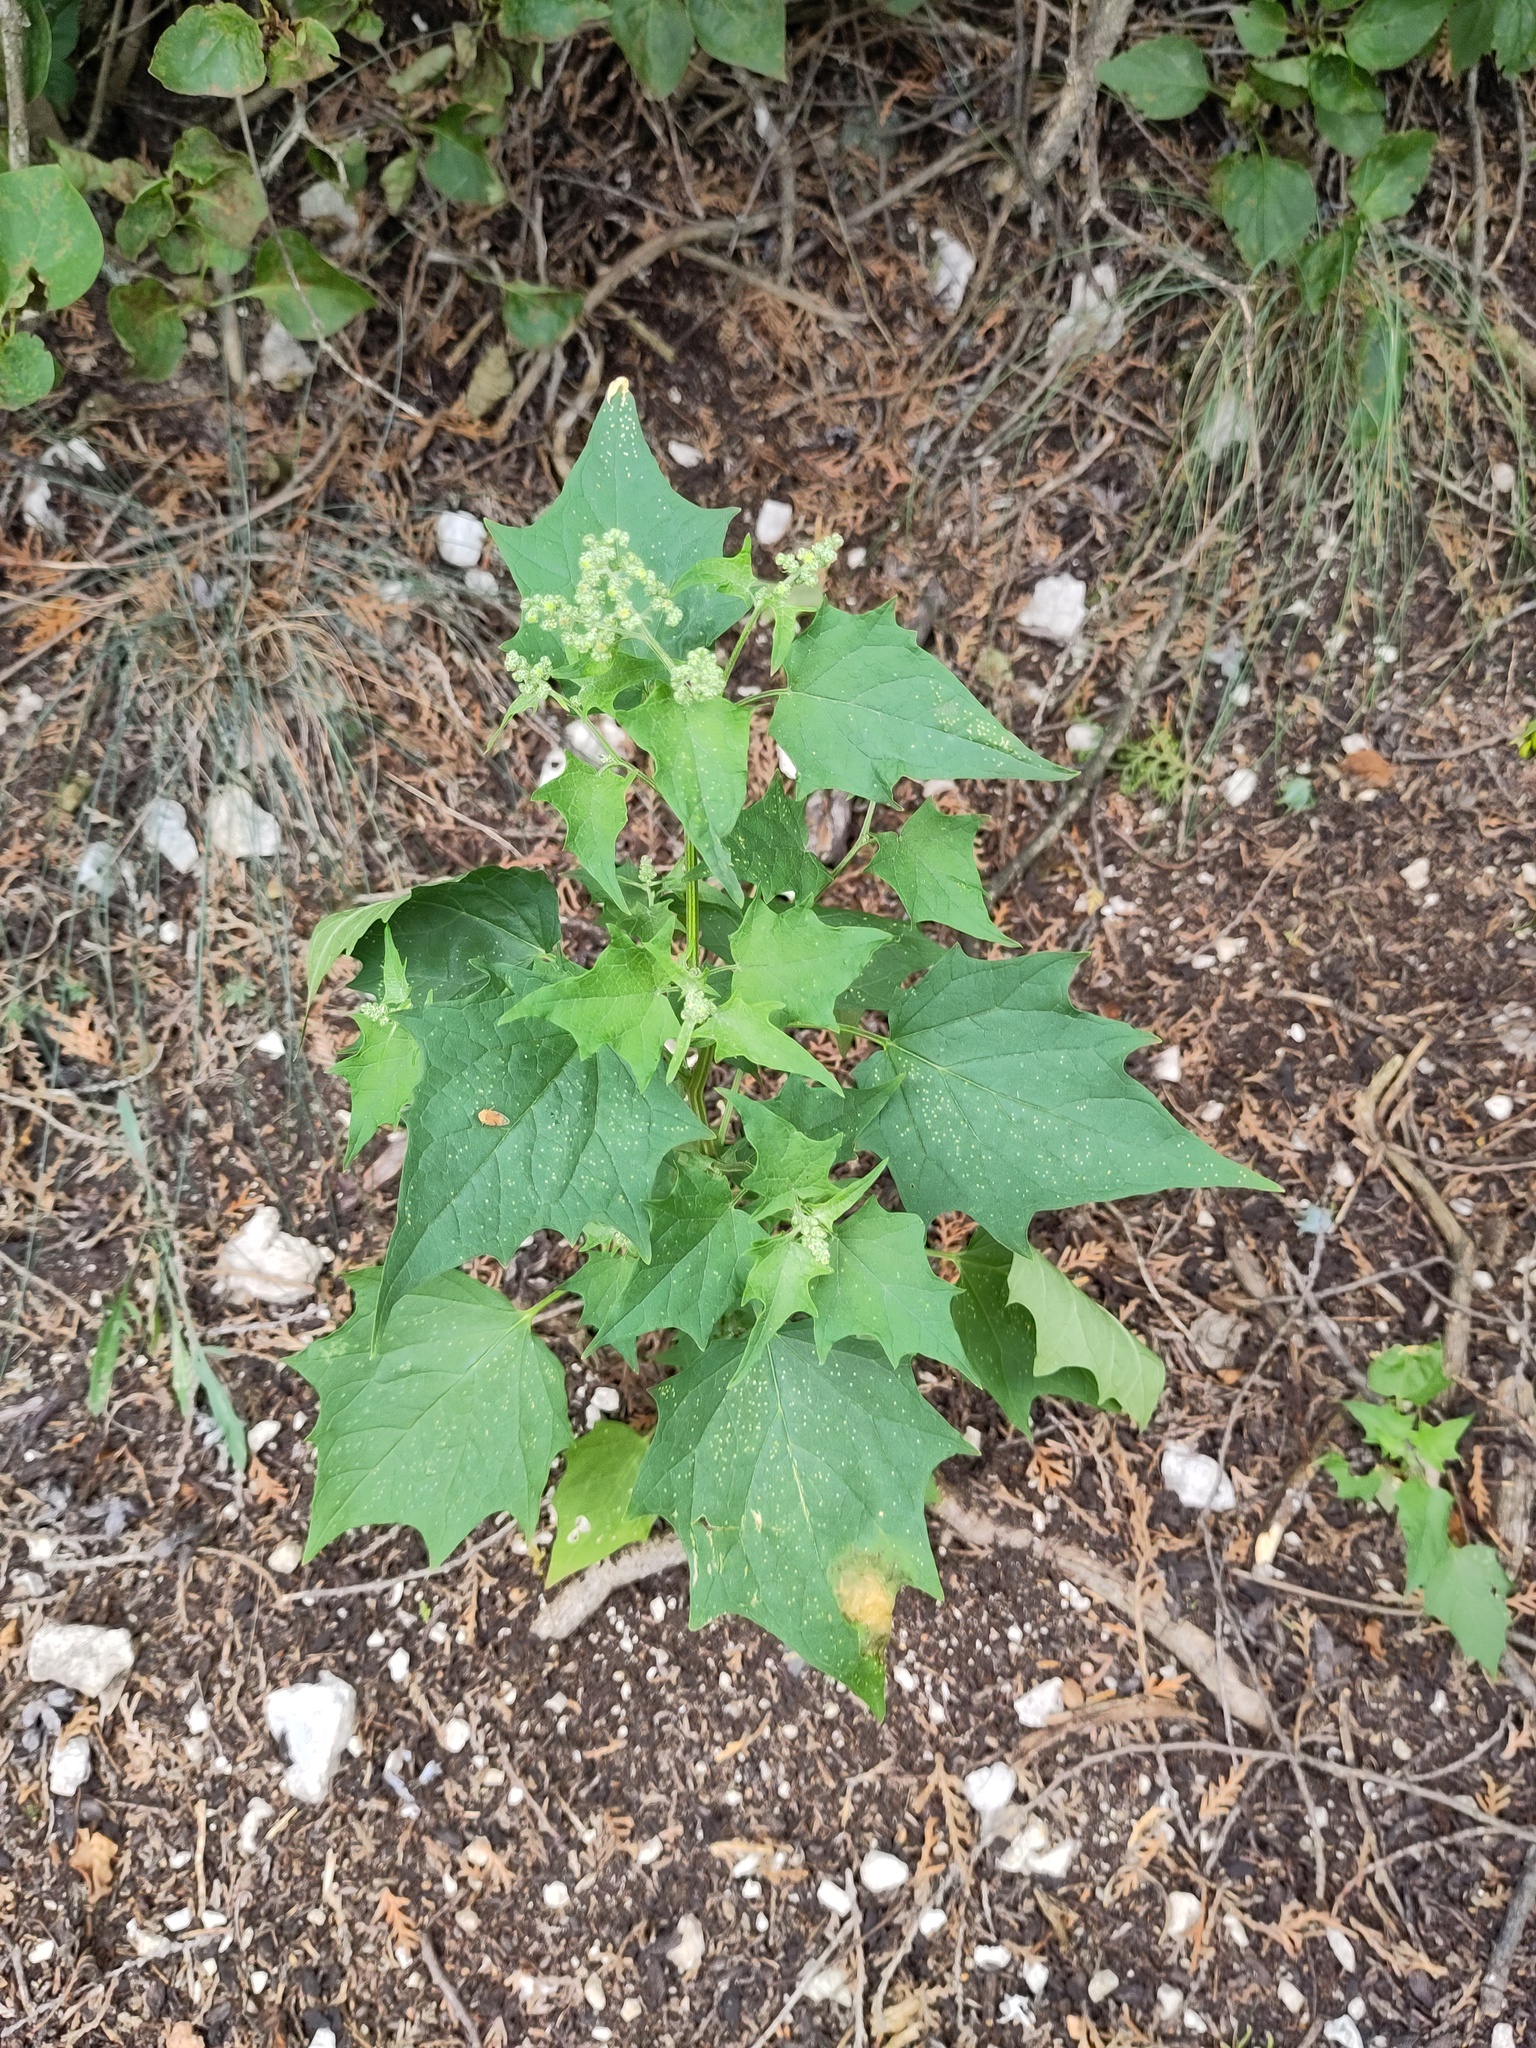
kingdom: Plantae
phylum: Tracheophyta
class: Magnoliopsida
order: Caryophyllales
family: Amaranthaceae
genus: Chenopodiastrum
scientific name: Chenopodiastrum hybridum
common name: Mapleleaf goosefoot
